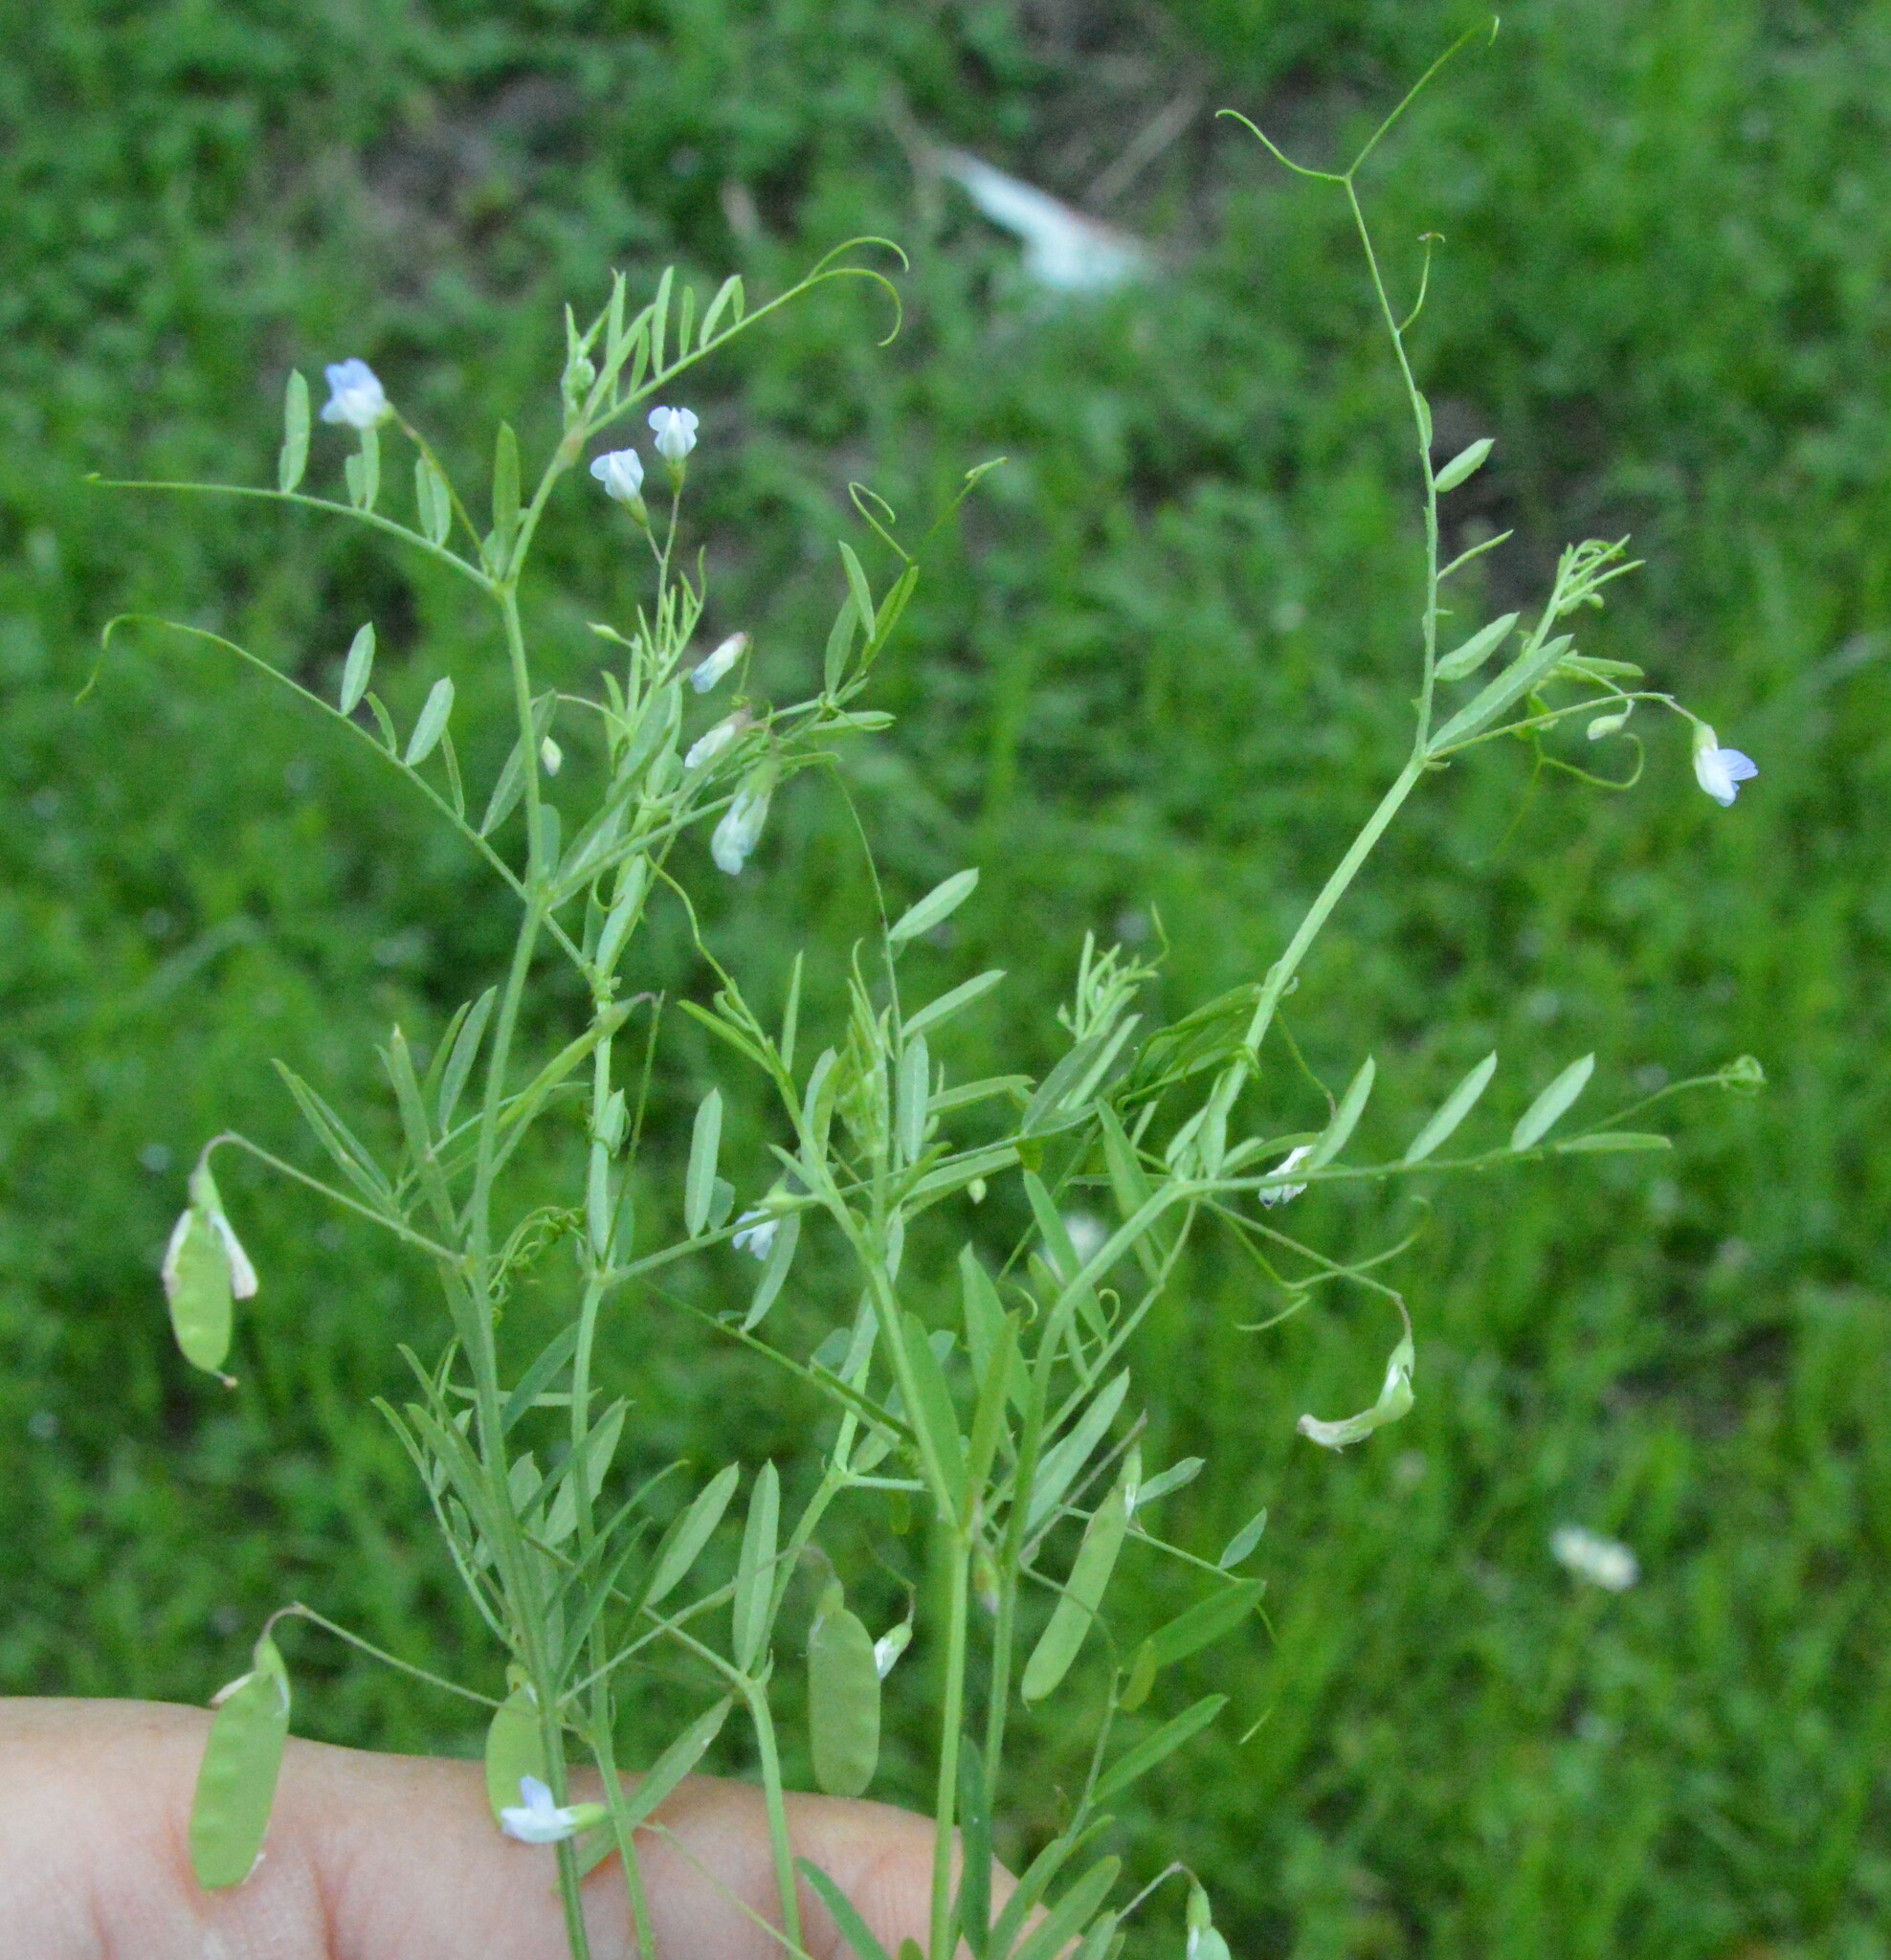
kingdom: Plantae
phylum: Tracheophyta
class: Magnoliopsida
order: Fabales
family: Fabaceae
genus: Vicia
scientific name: Vicia tetrasperma
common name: Smooth tare
